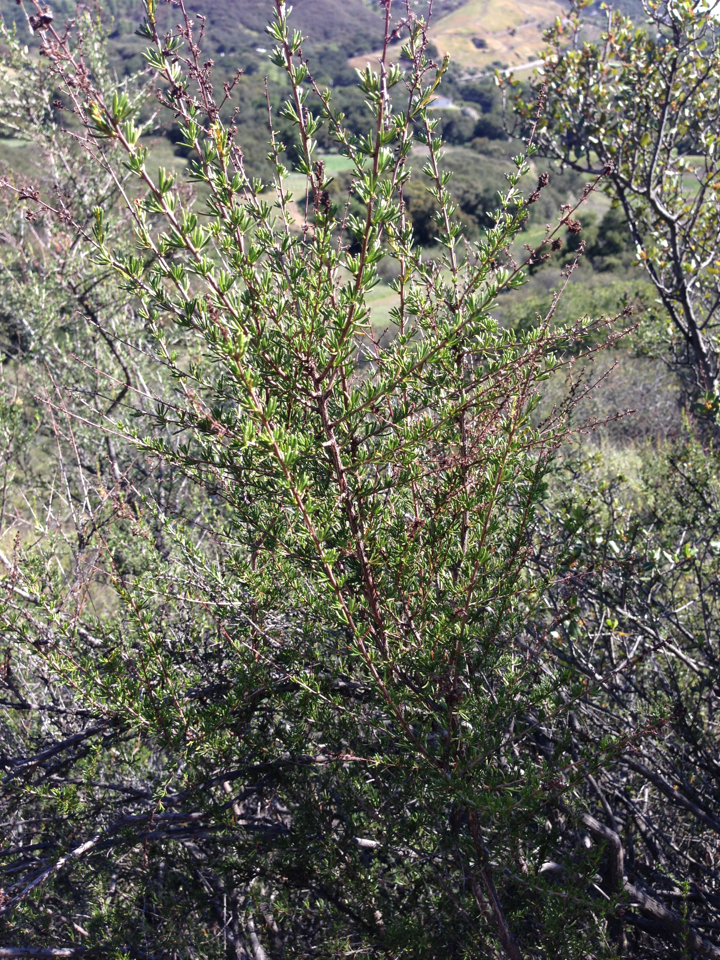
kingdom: Plantae
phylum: Tracheophyta
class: Magnoliopsida
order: Rosales
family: Rosaceae
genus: Adenostoma
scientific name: Adenostoma fasciculatum
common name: Chamise
